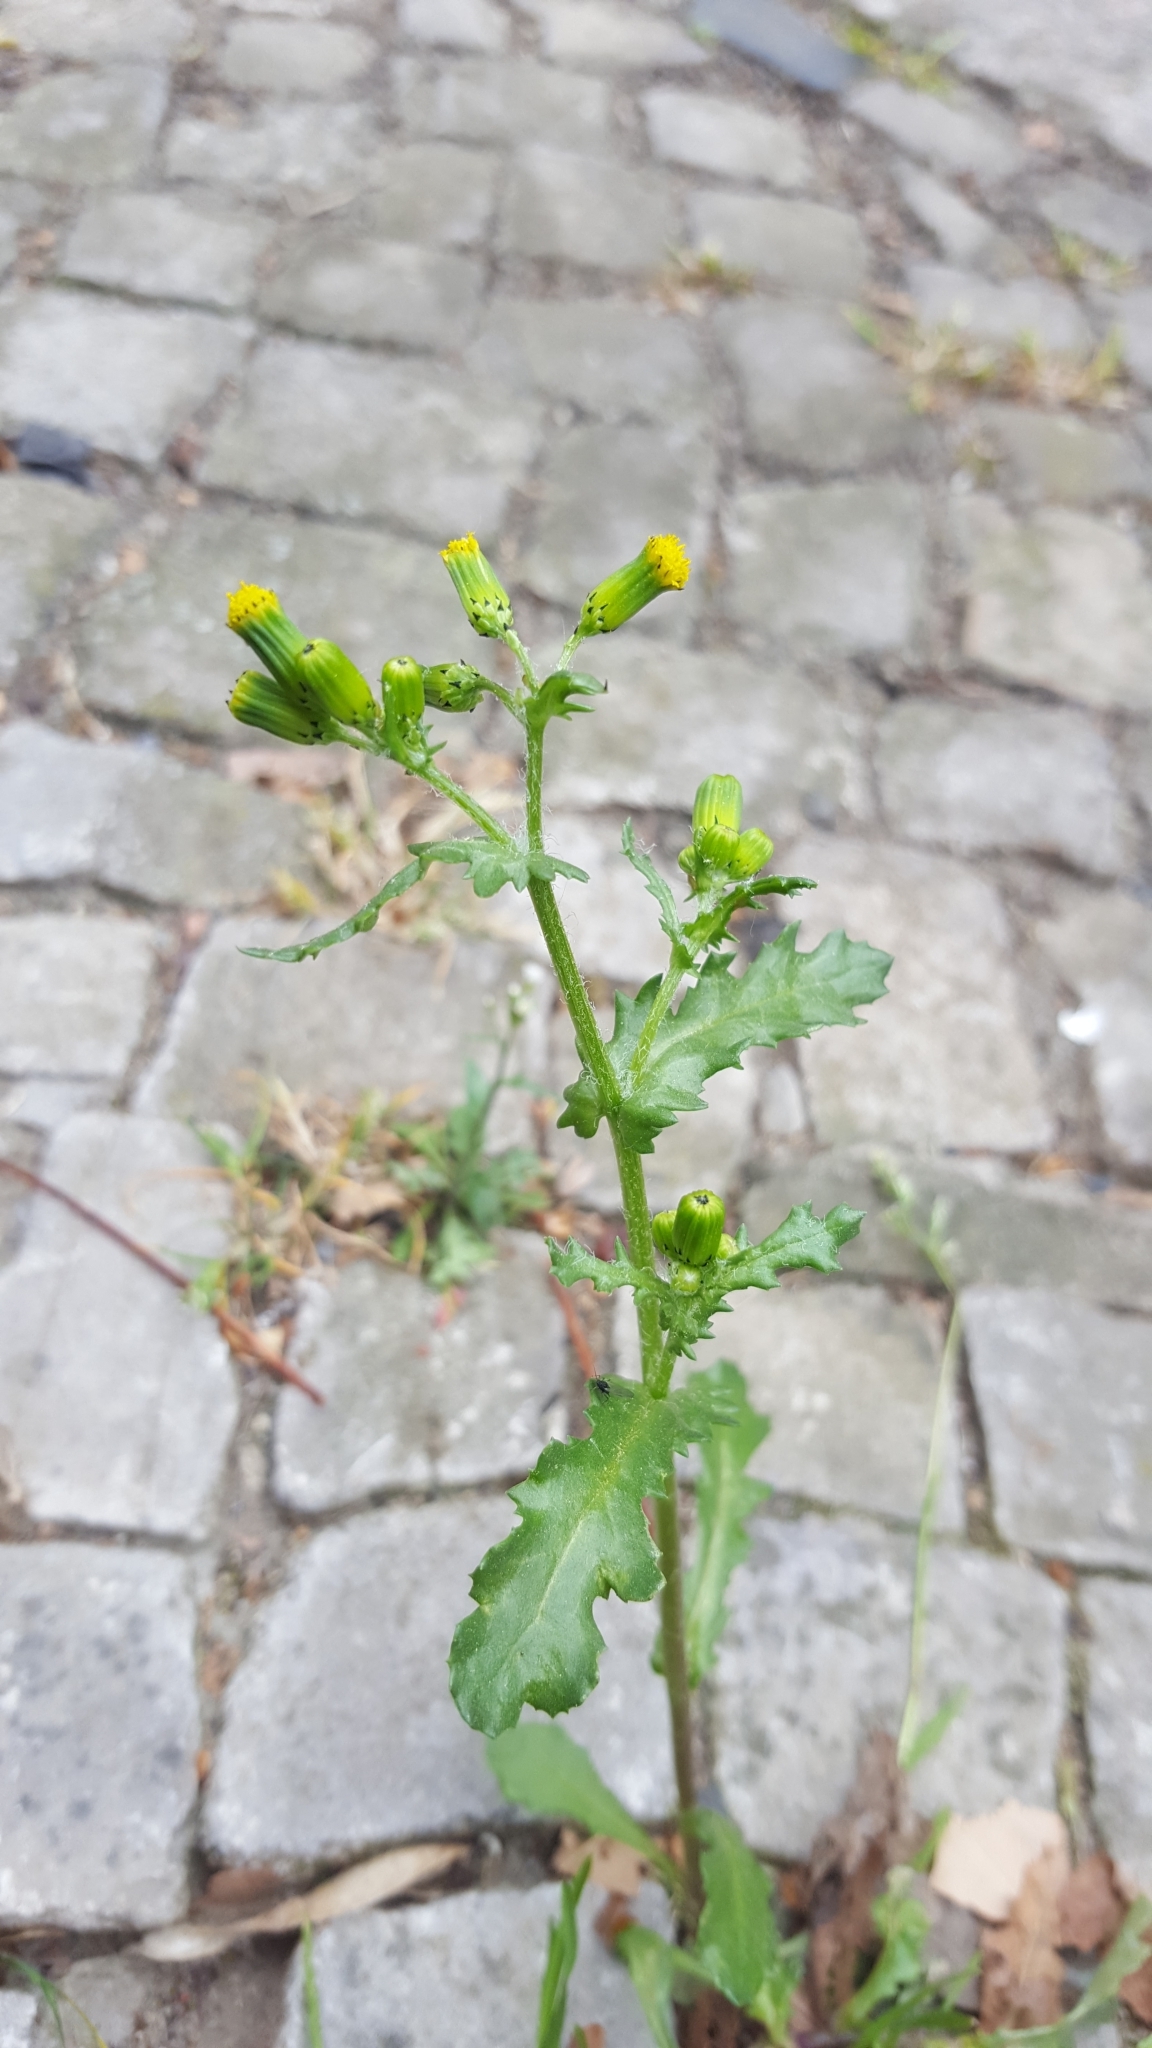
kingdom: Plantae
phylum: Tracheophyta
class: Magnoliopsida
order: Asterales
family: Asteraceae
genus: Senecio
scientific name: Senecio vulgaris
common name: Old-man-in-the-spring
